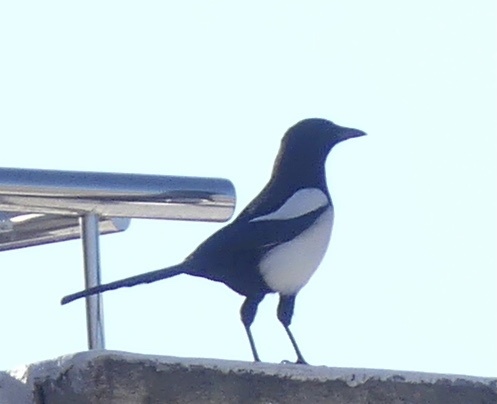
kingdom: Animalia
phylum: Chordata
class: Aves
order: Passeriformes
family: Corvidae
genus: Pica
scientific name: Pica pica
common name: Eurasian magpie
